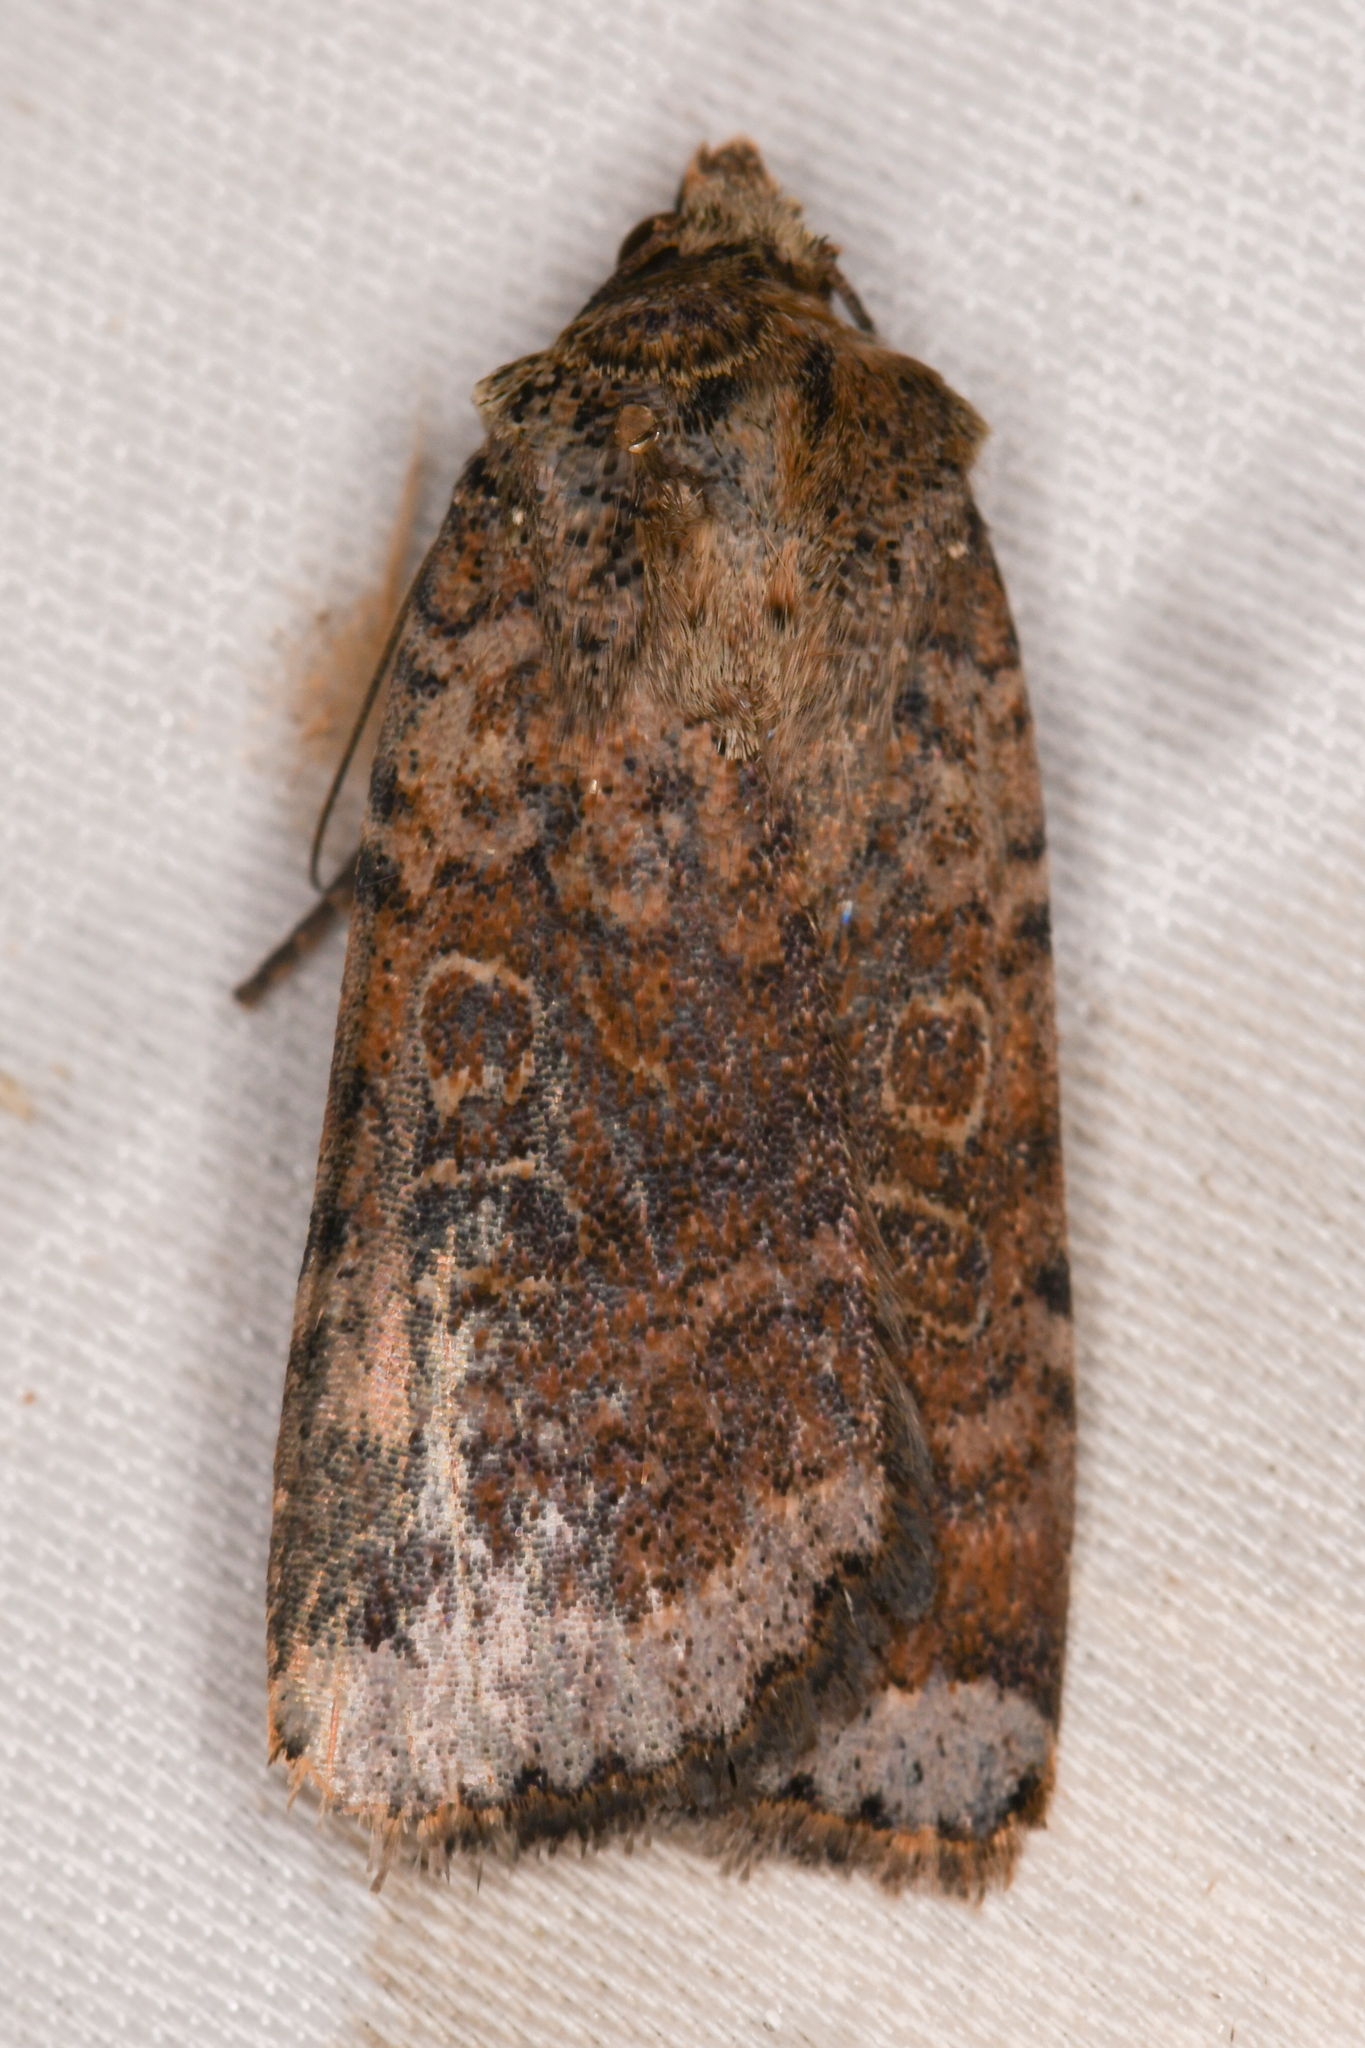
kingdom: Animalia
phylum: Arthropoda
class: Insecta
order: Lepidoptera
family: Noctuidae
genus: Abagrotis
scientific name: Abagrotis scopeops
